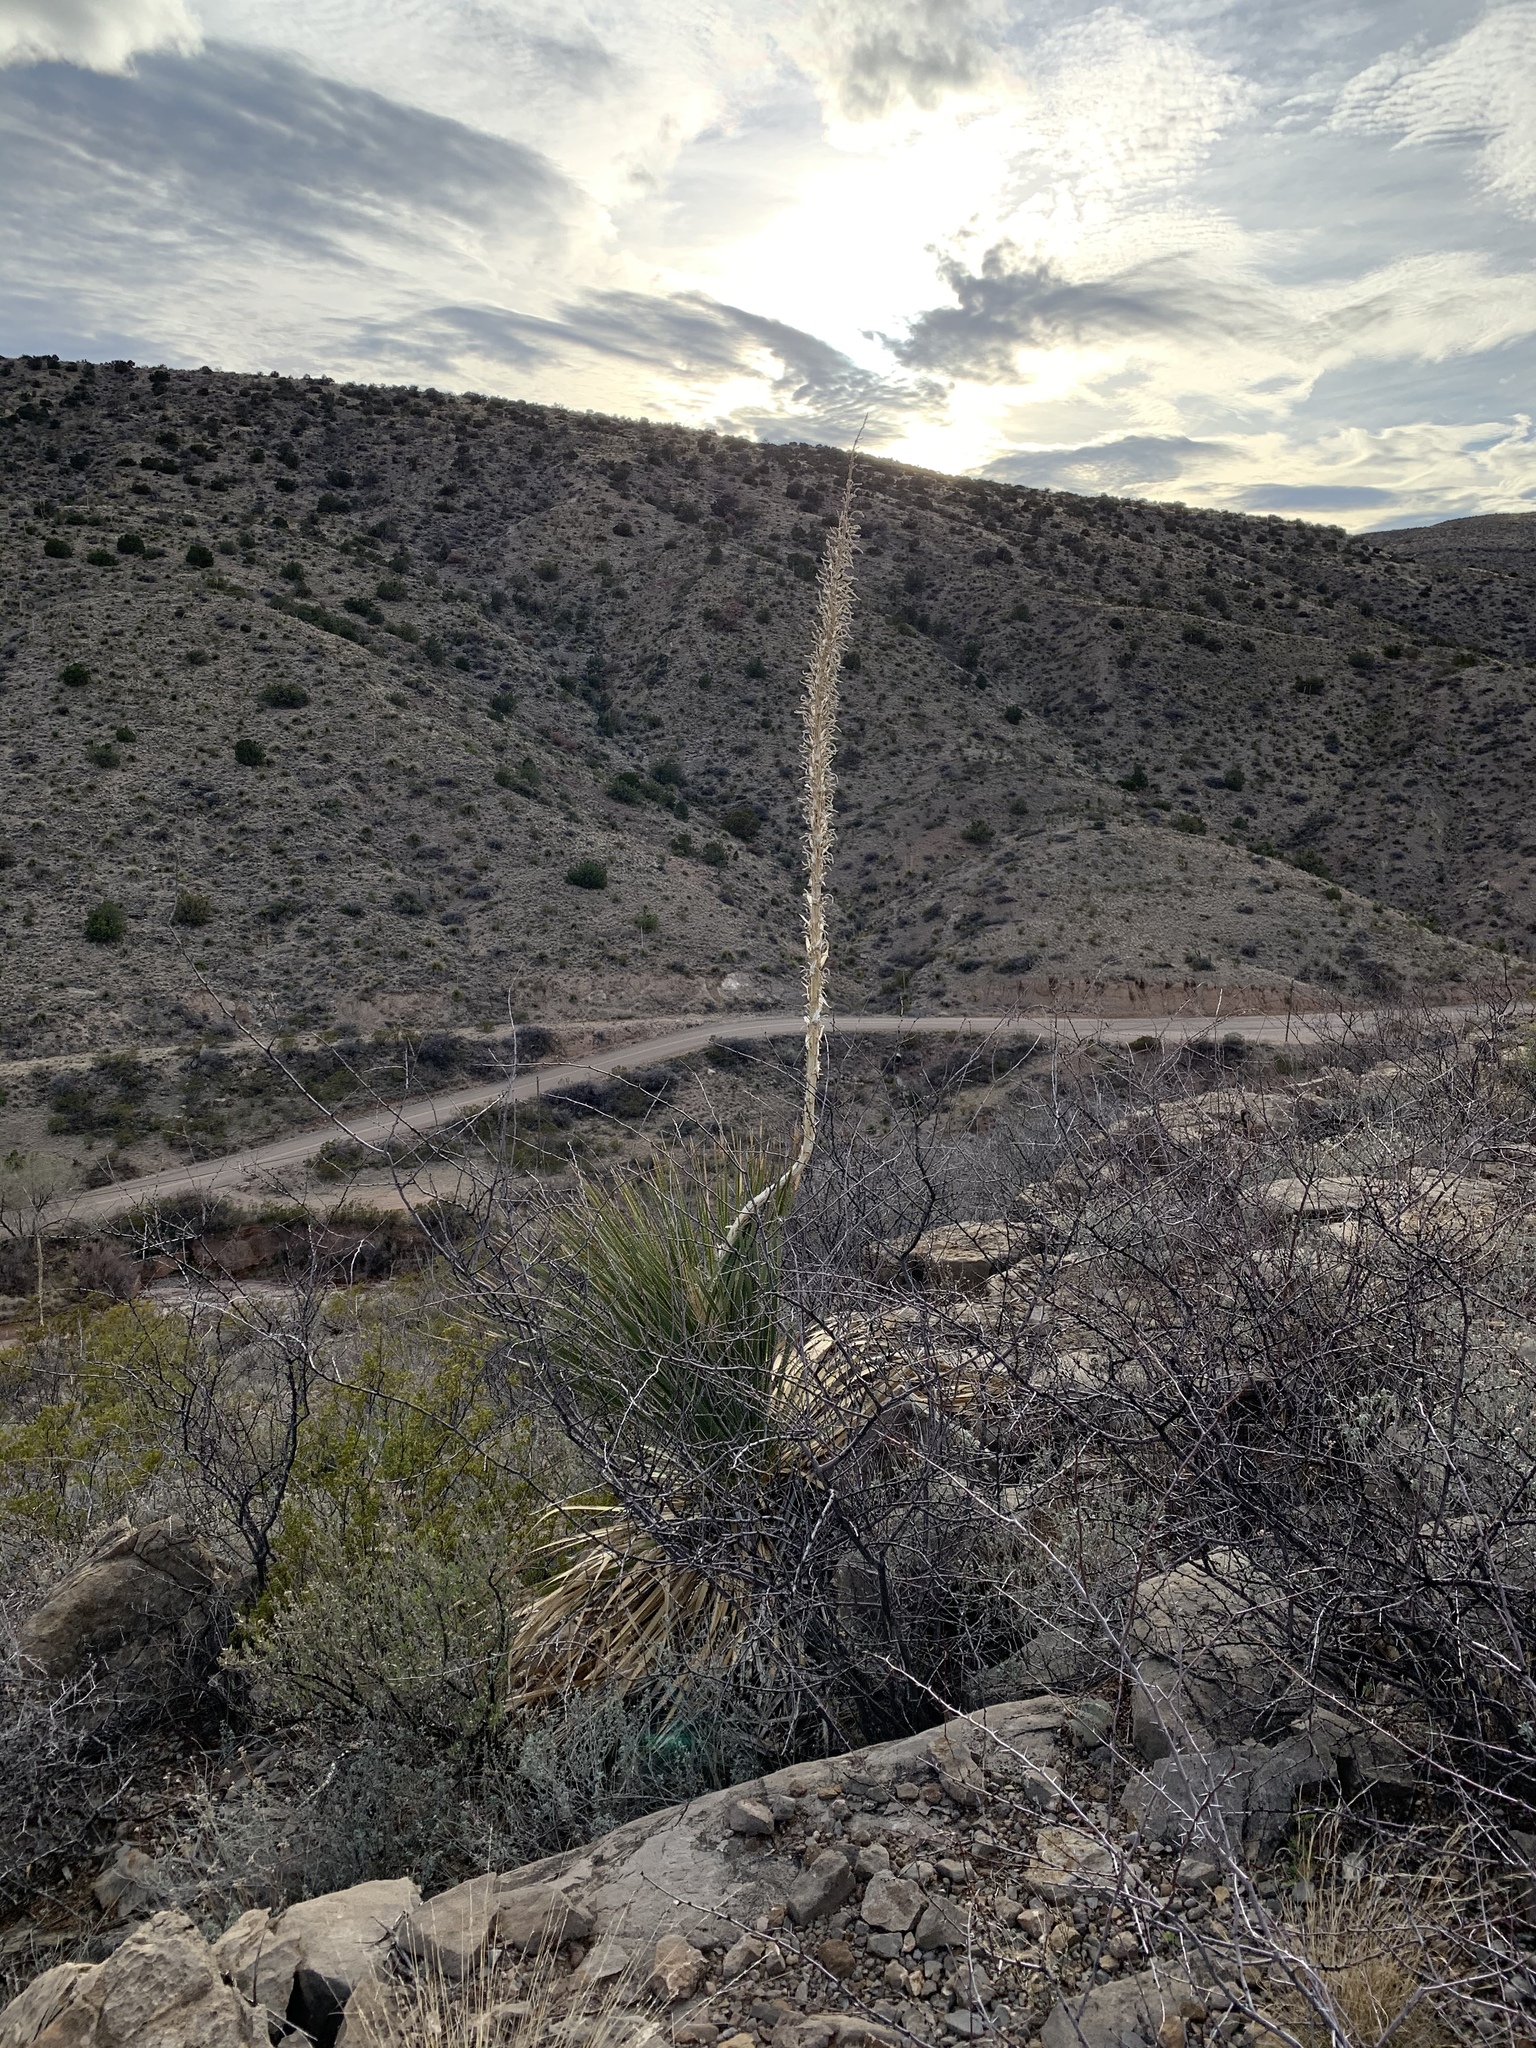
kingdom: Plantae
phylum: Tracheophyta
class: Liliopsida
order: Asparagales
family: Asparagaceae
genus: Dasylirion
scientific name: Dasylirion wheeleri
